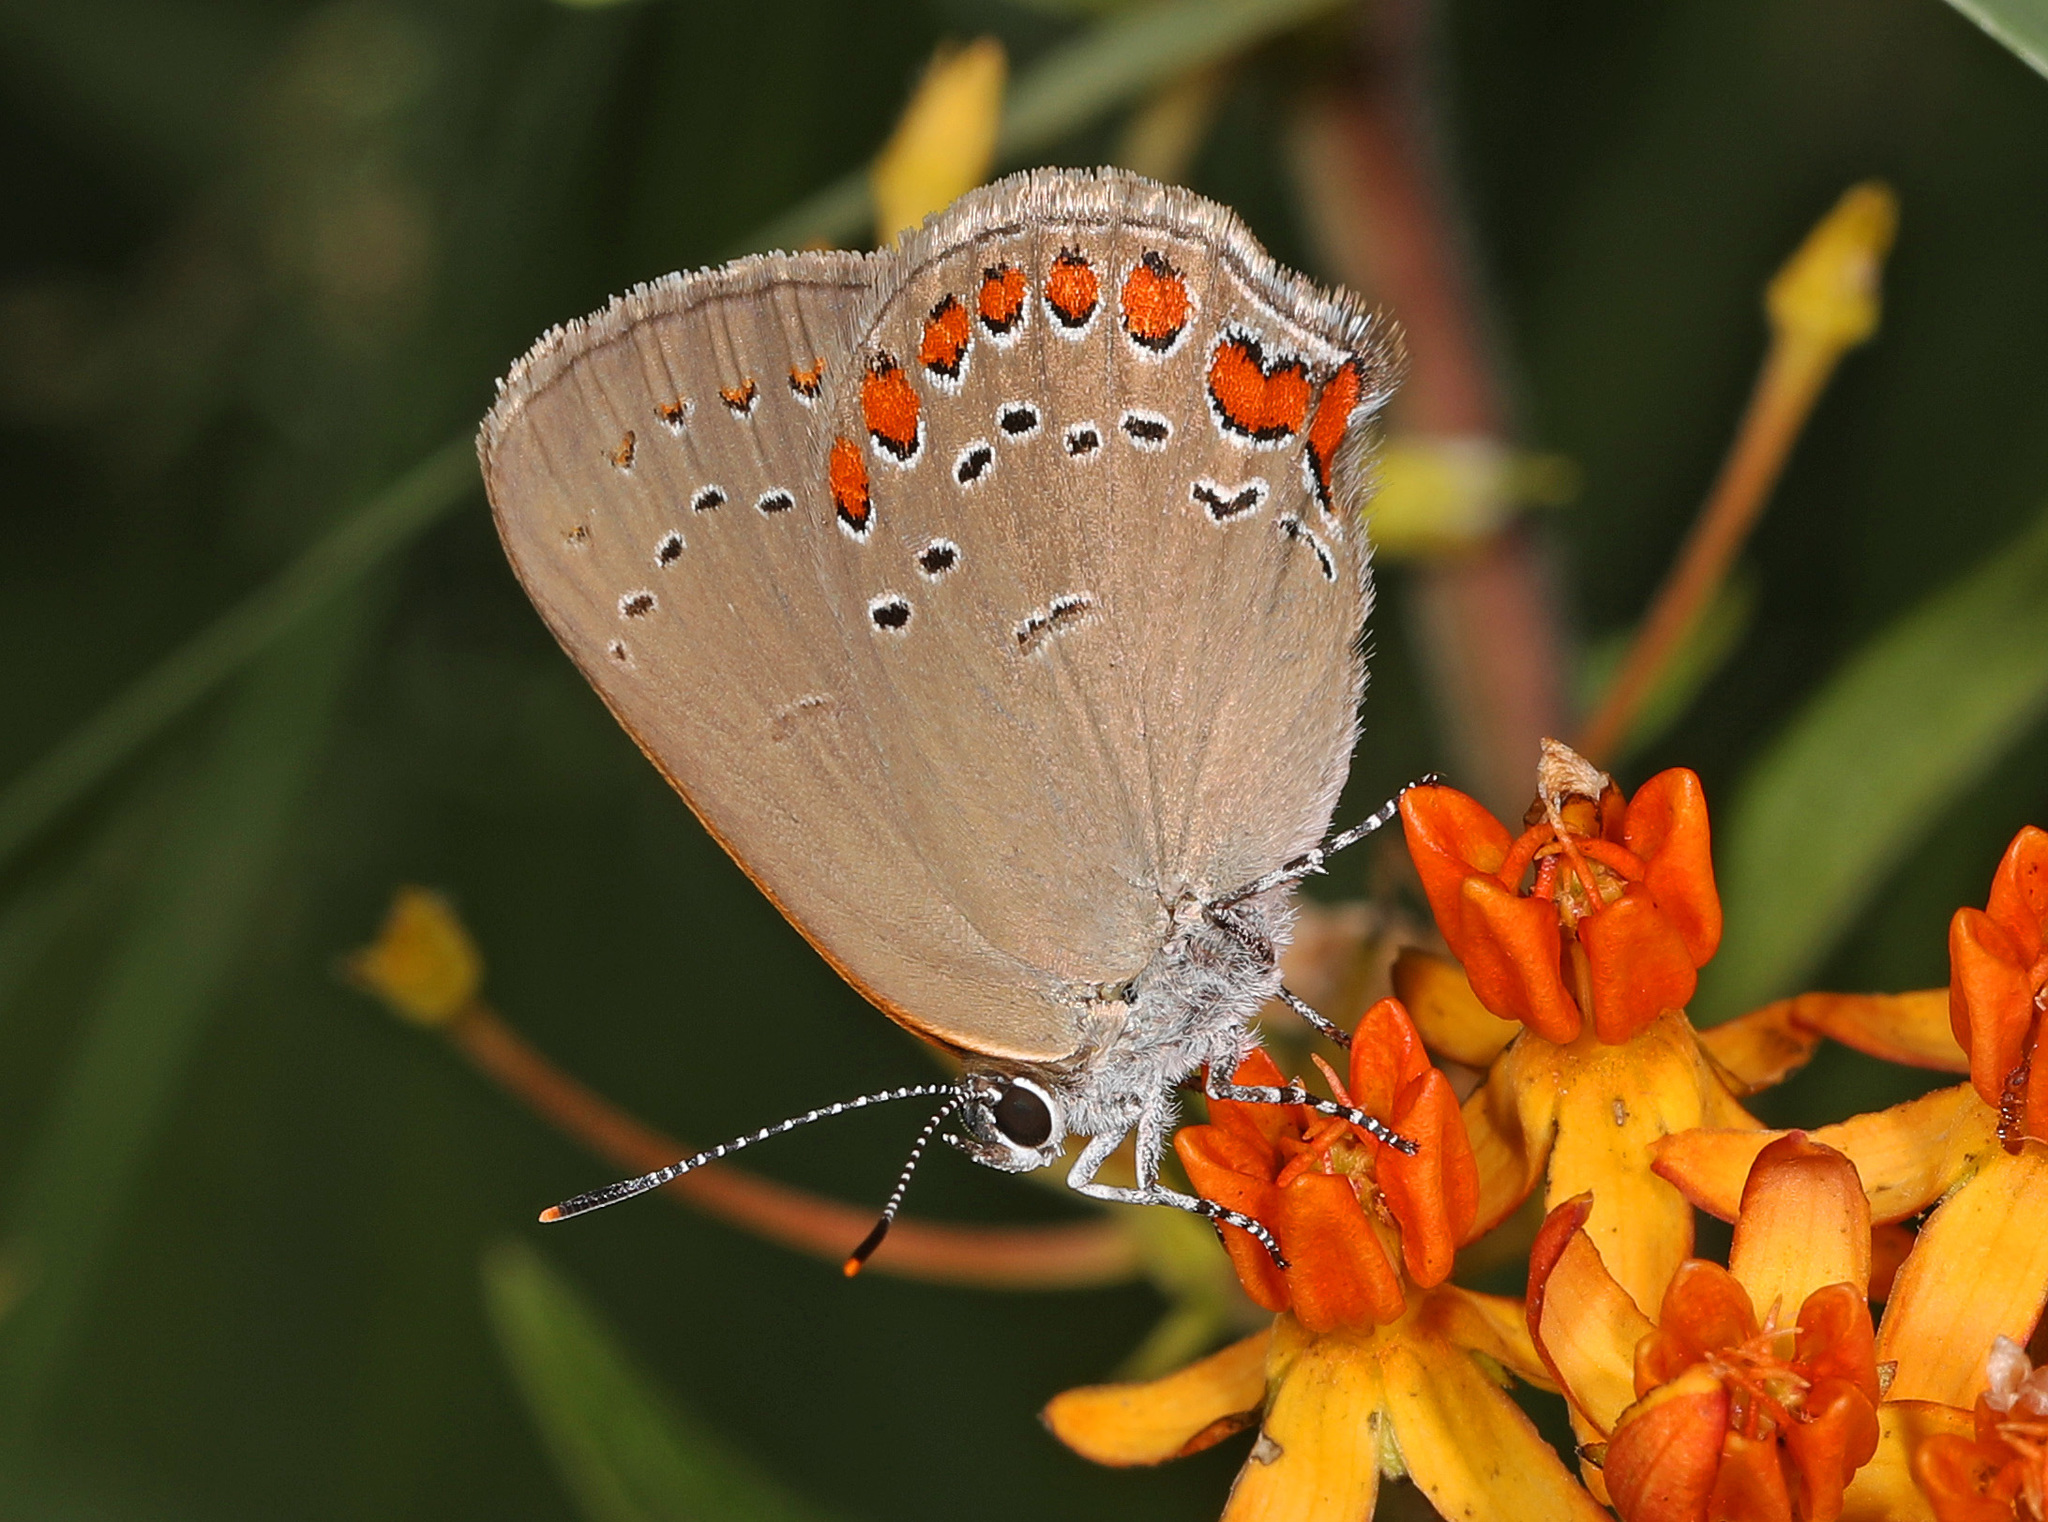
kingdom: Animalia
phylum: Arthropoda
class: Insecta
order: Lepidoptera
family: Lycaenidae
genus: Harkenclenus
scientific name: Harkenclenus titus
